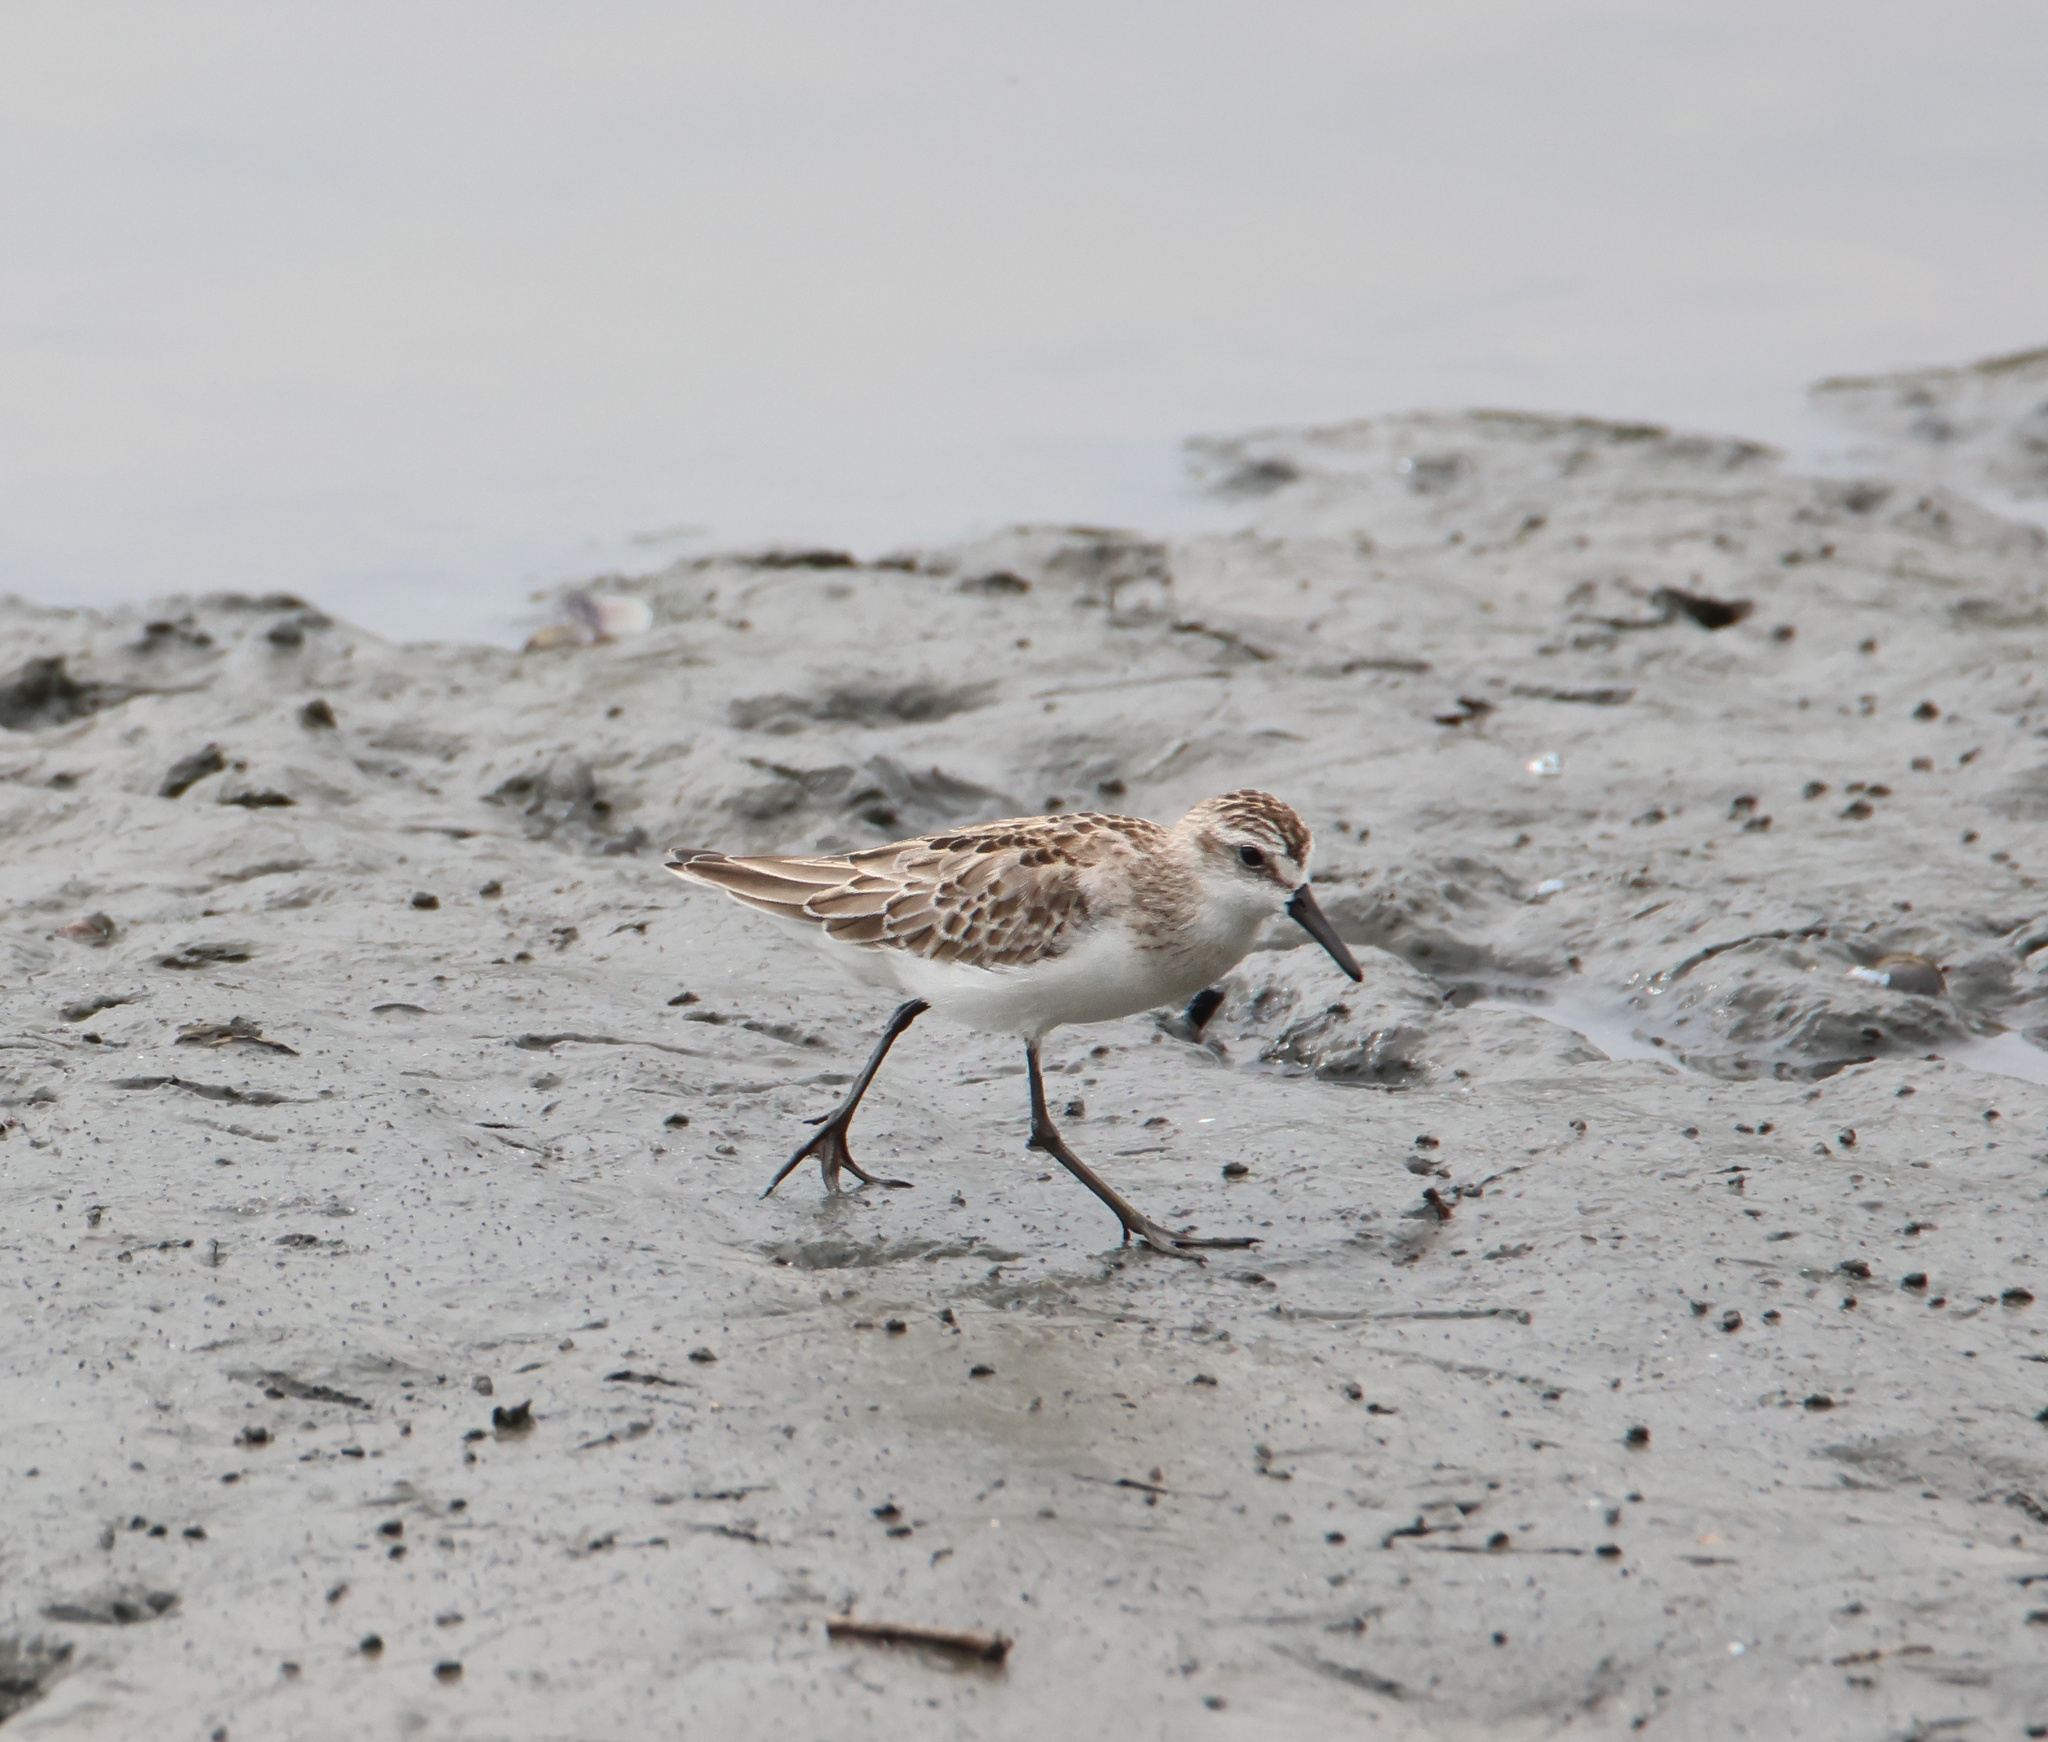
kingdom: Animalia
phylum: Chordata
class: Aves
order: Charadriiformes
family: Scolopacidae
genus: Calidris
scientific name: Calidris pusilla
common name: Semipalmated sandpiper
